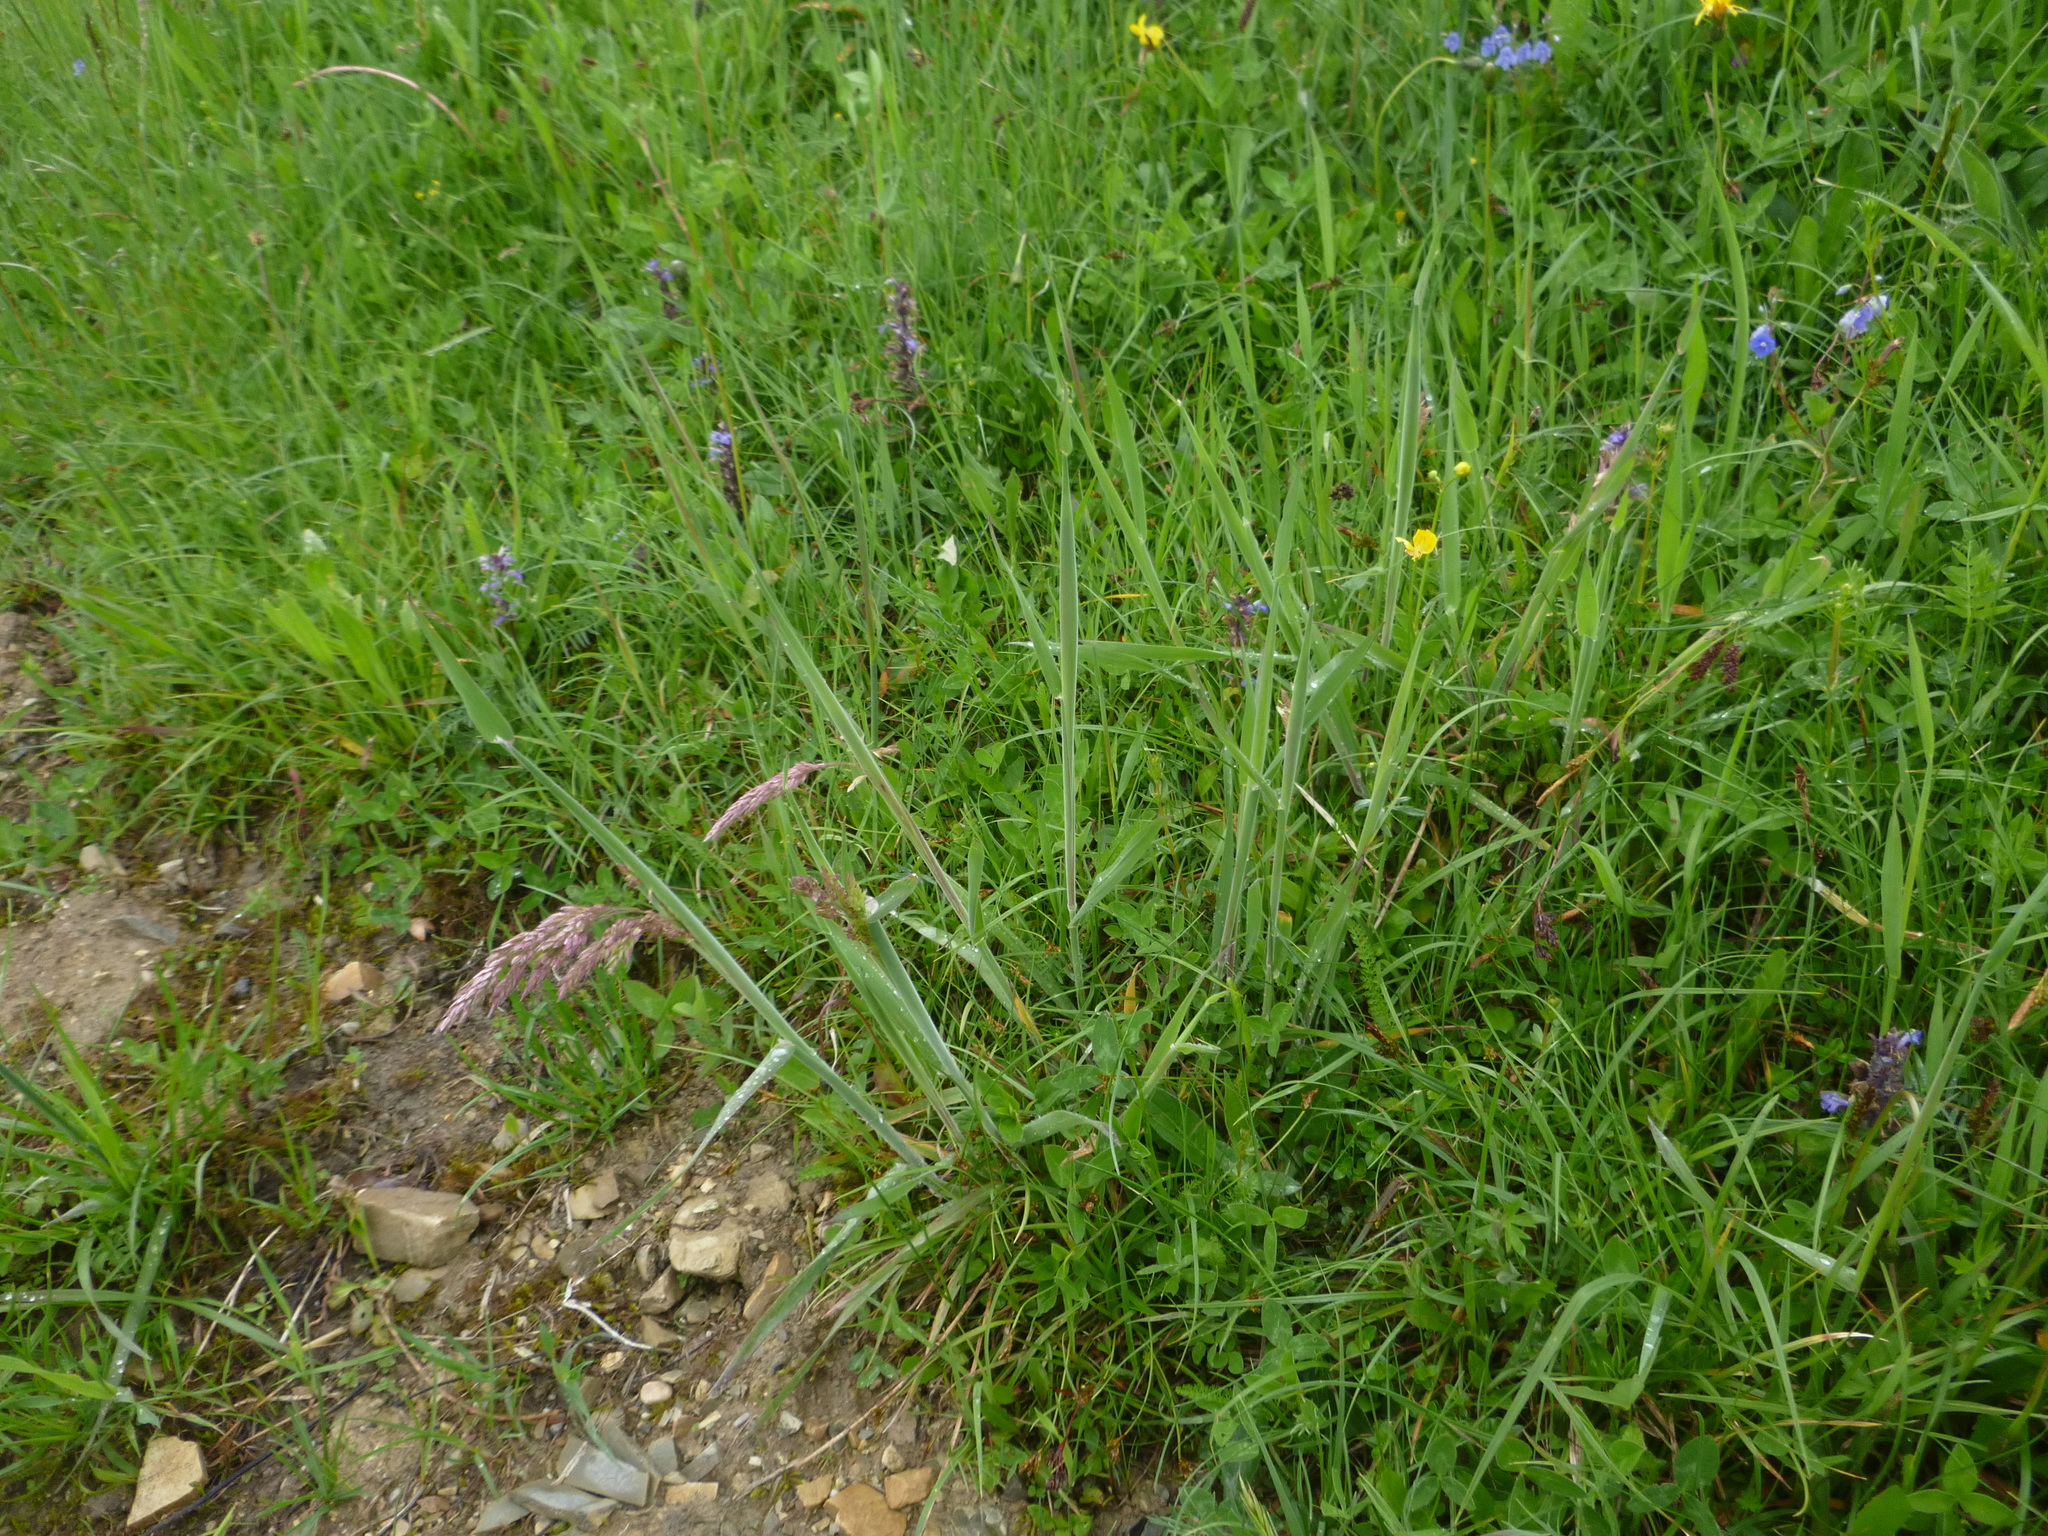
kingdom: Plantae
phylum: Tracheophyta
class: Liliopsida
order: Poales
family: Poaceae
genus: Holcus
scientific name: Holcus lanatus
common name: Yorkshire-fog
